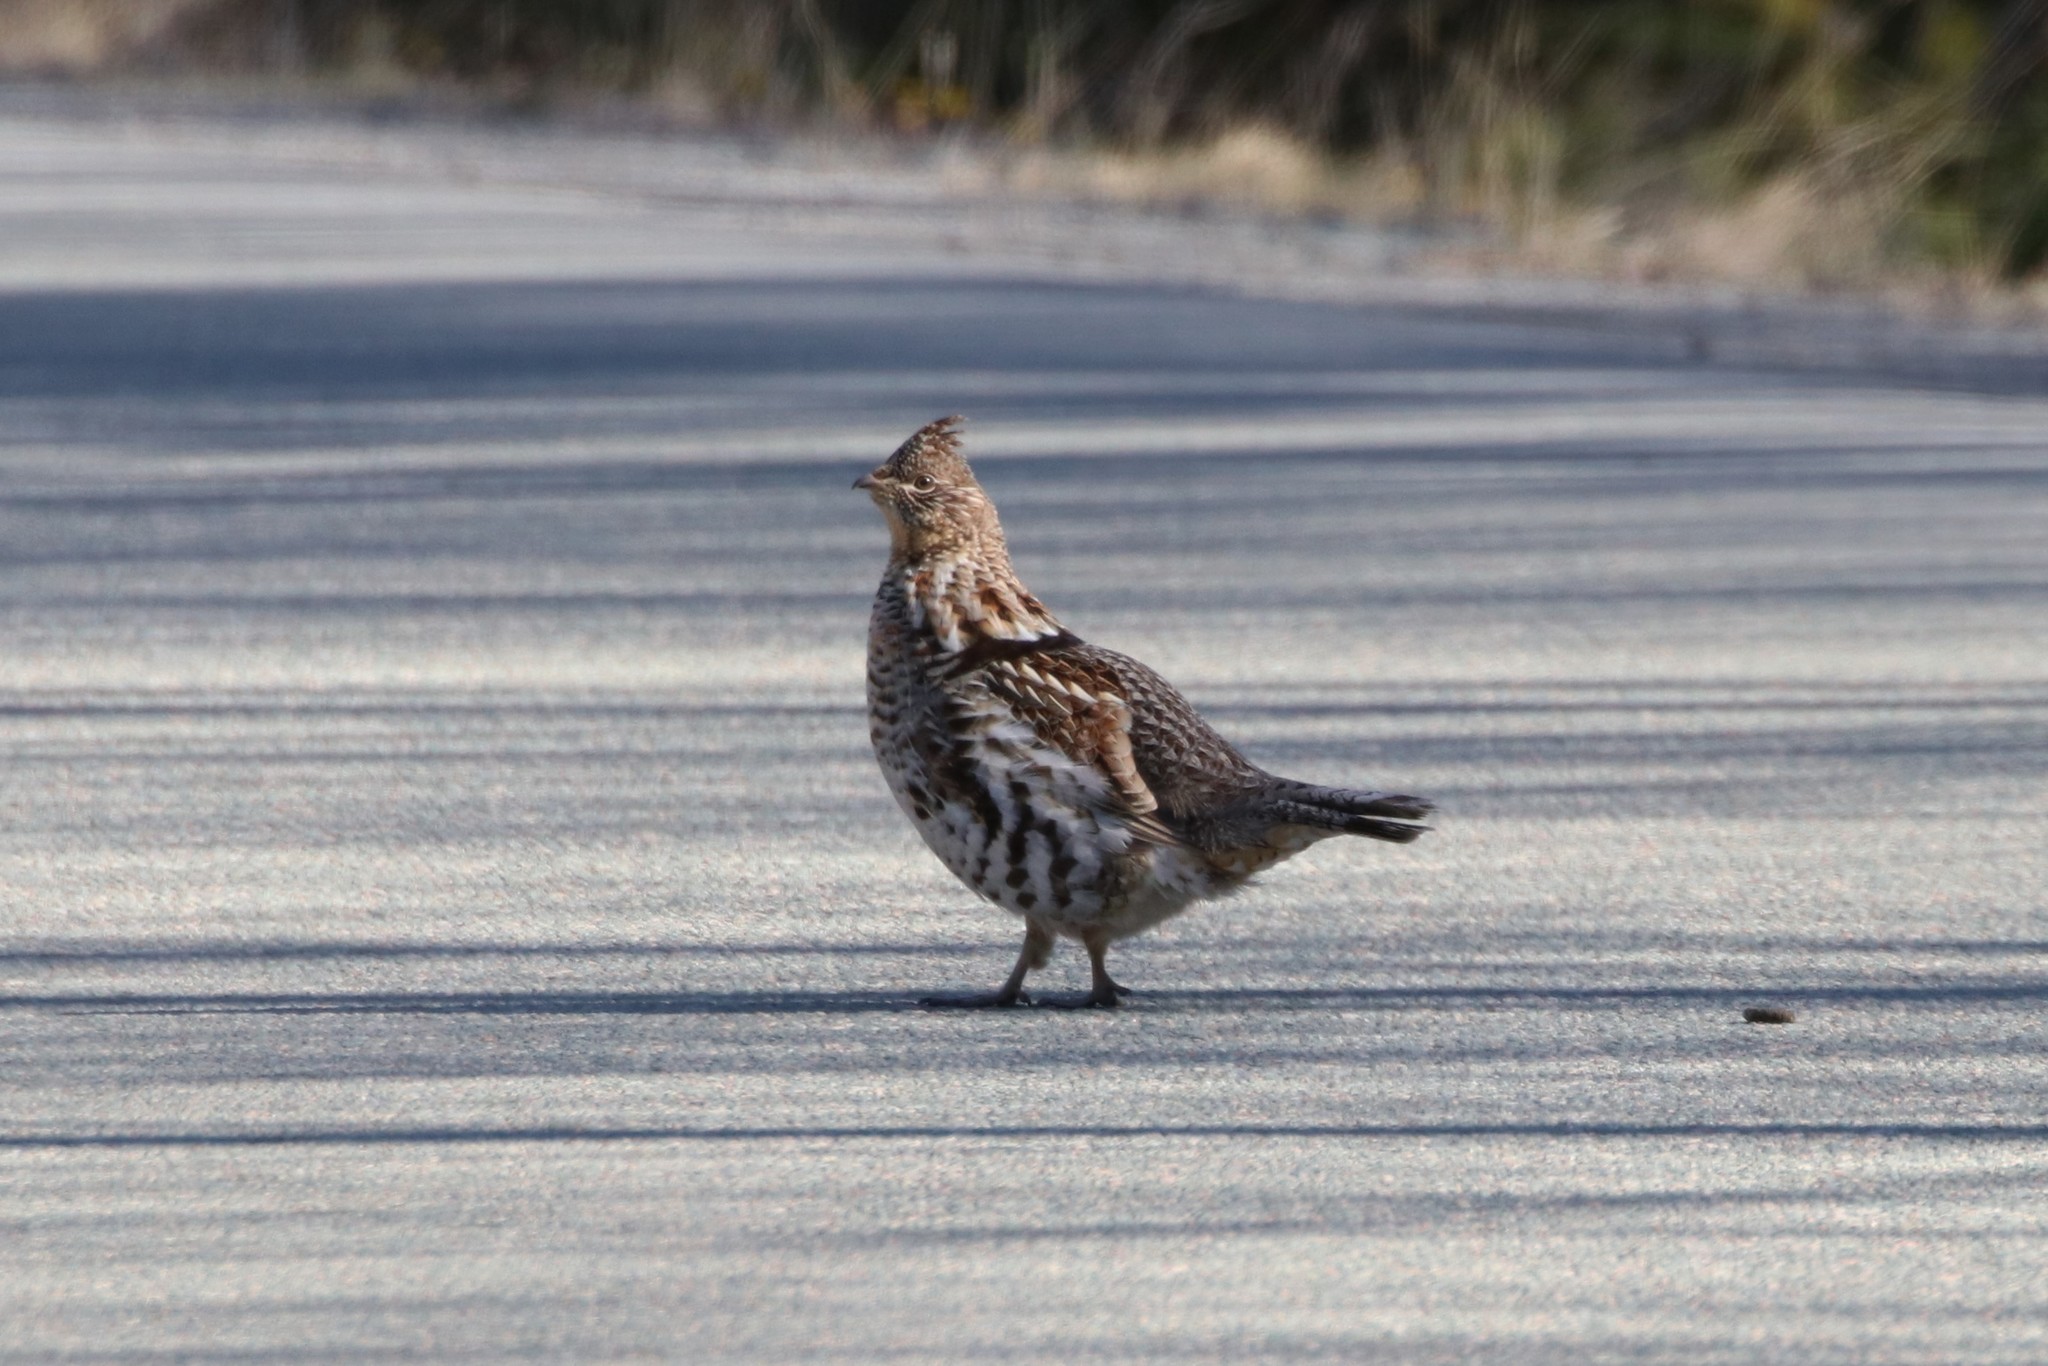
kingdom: Animalia
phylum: Chordata
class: Aves
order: Galliformes
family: Phasianidae
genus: Bonasa
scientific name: Bonasa umbellus
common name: Ruffed grouse
